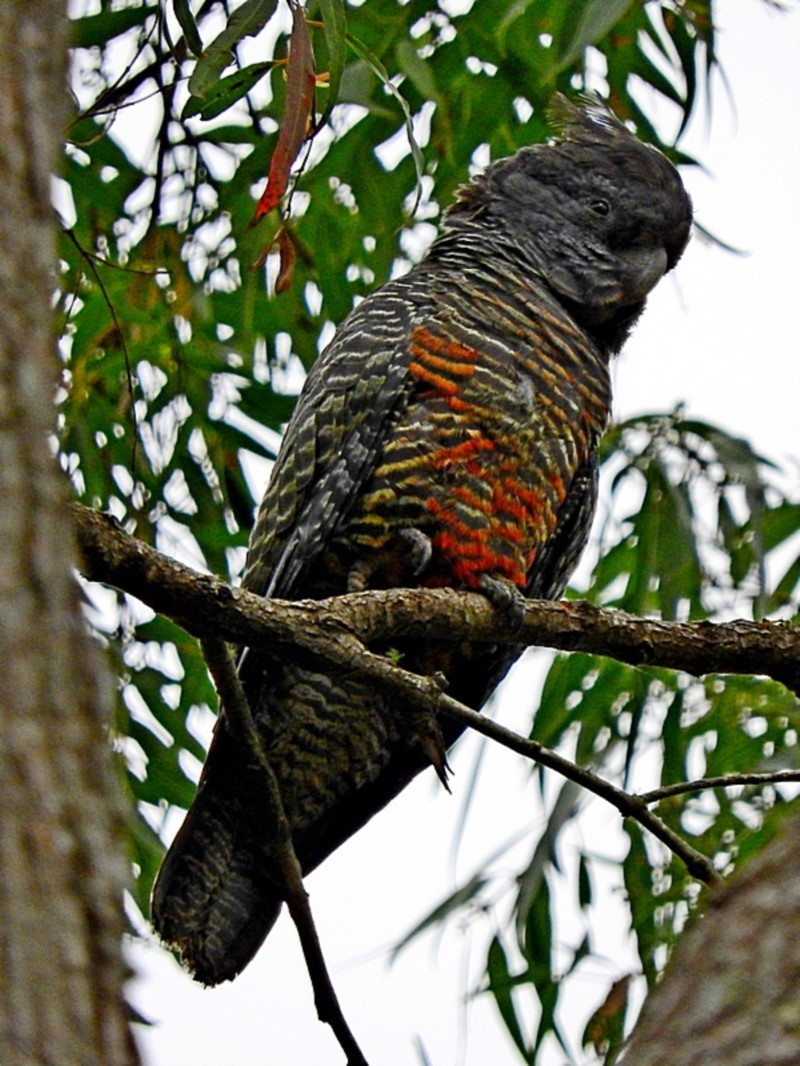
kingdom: Animalia
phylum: Chordata
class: Aves
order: Psittaciformes
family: Psittacidae
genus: Callocephalon
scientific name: Callocephalon fimbriatum
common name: Gang-gang cockatoo
